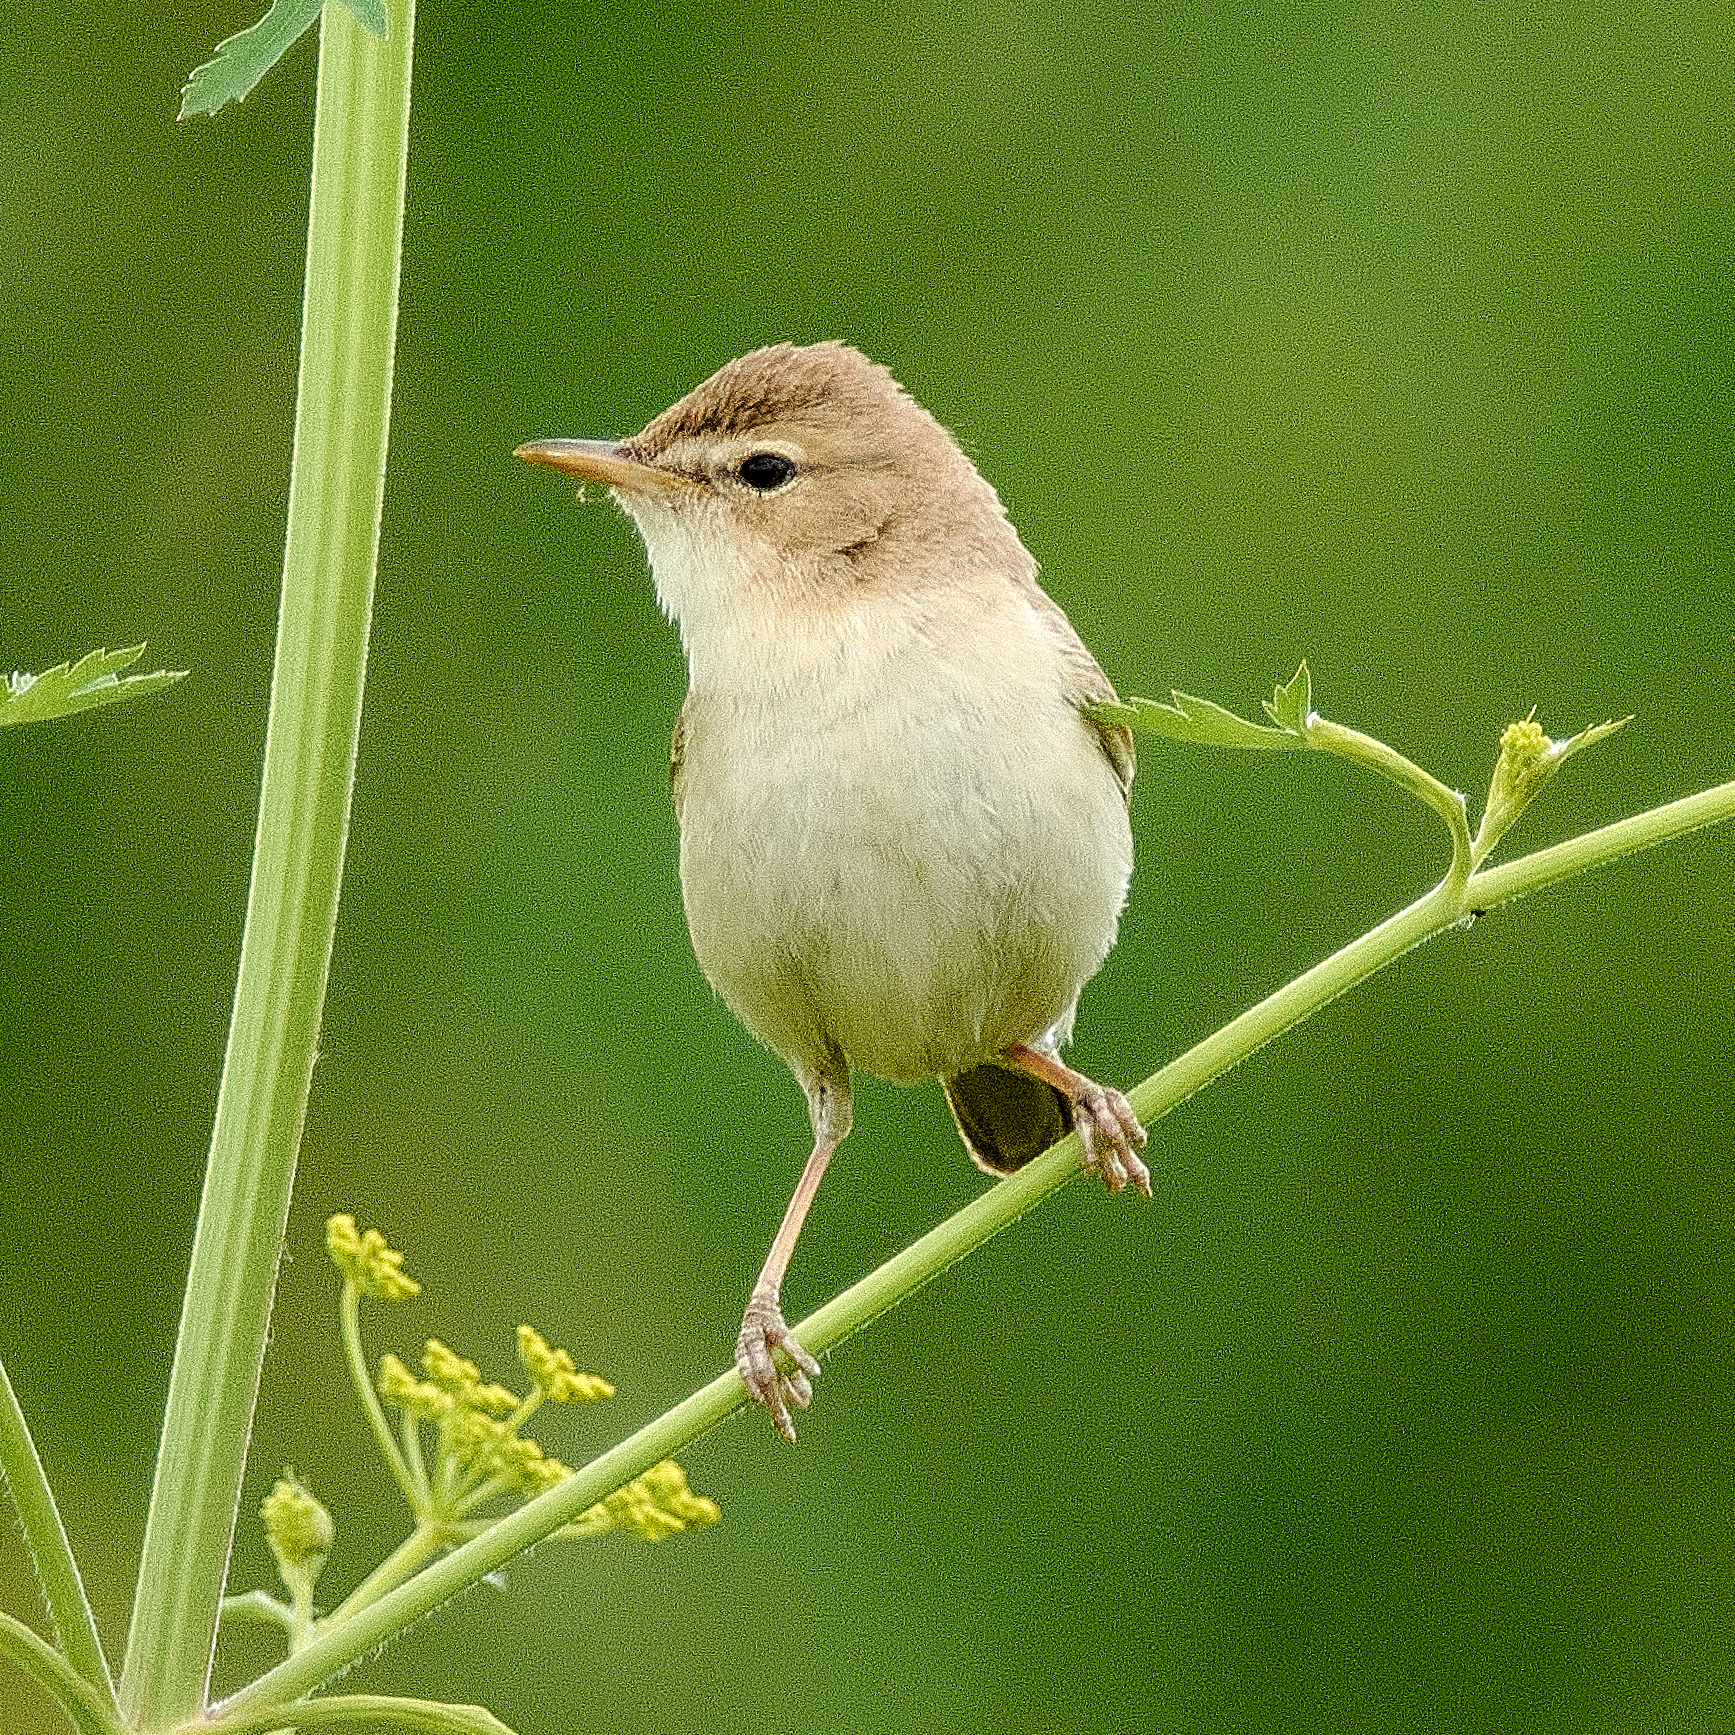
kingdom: Animalia
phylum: Chordata
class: Aves
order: Passeriformes
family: Acrocephalidae
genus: Iduna
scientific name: Iduna caligata
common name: Booted warbler
